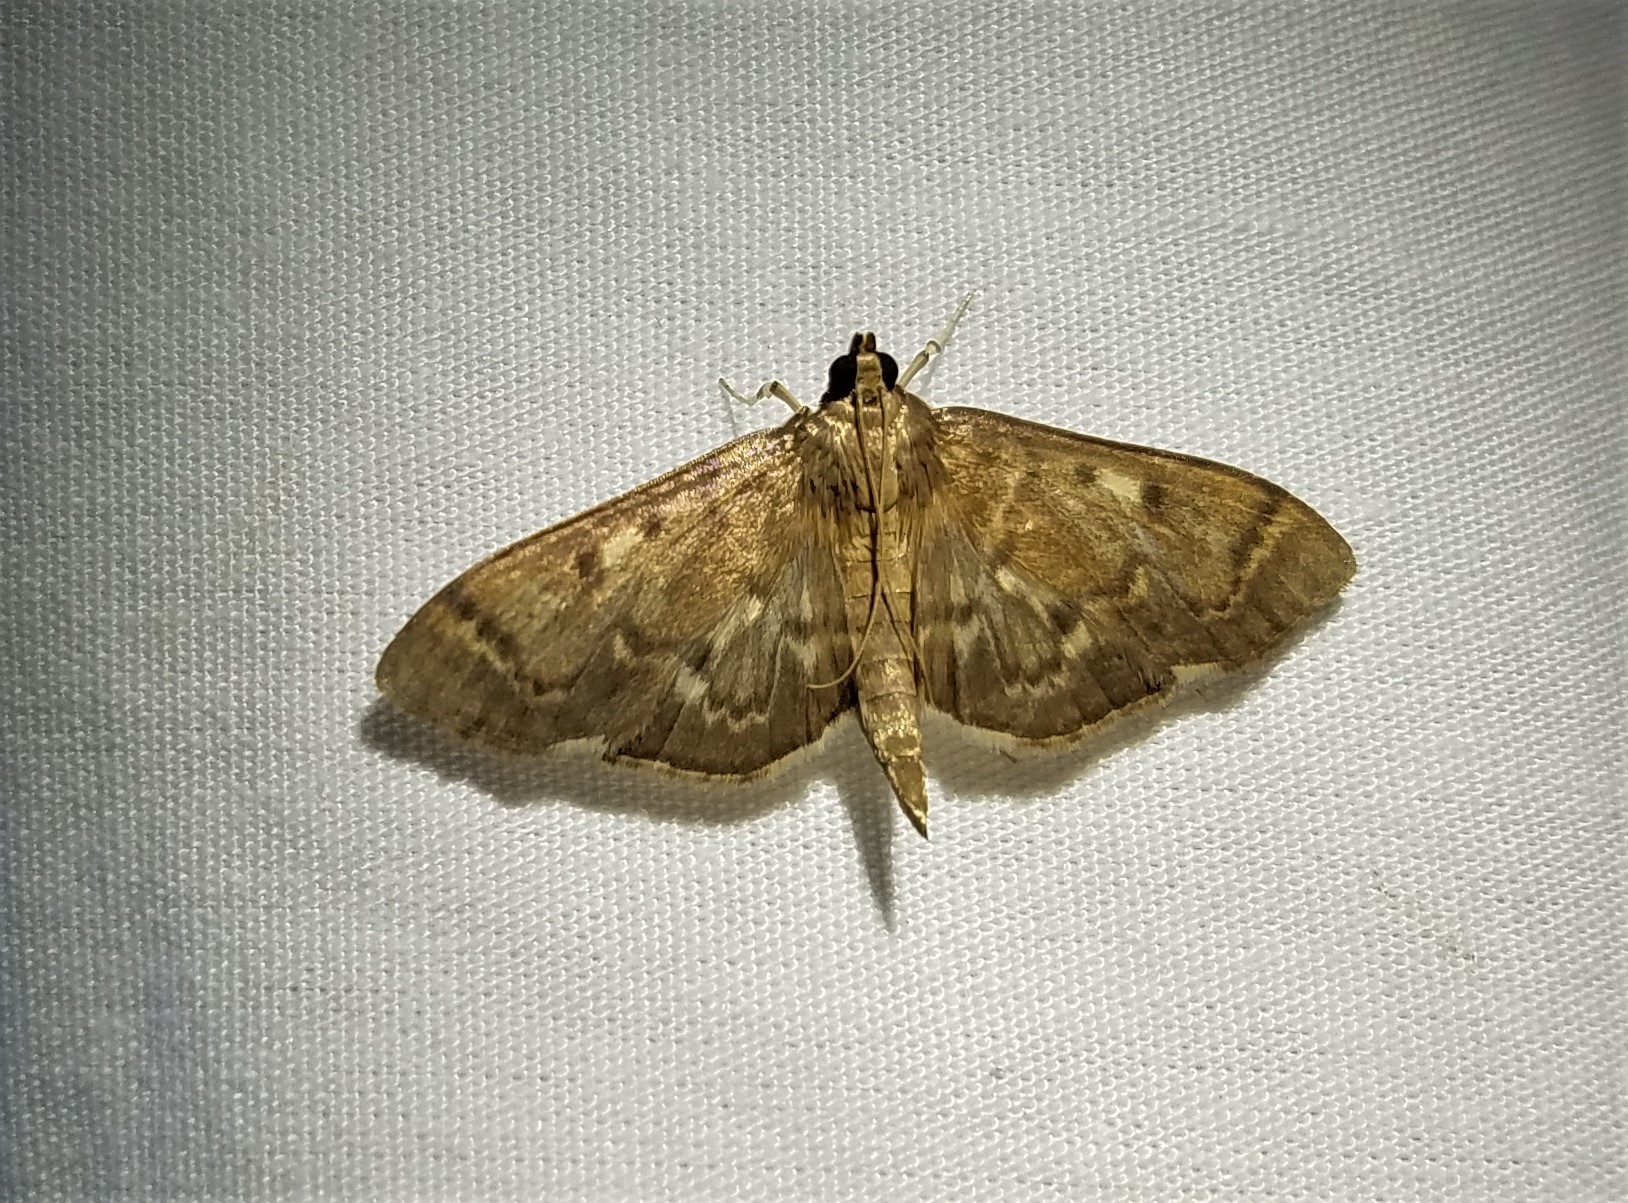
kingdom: Animalia
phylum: Arthropoda
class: Insecta
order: Lepidoptera
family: Crambidae
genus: Herpetogramma
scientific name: Herpetogramma aeglealis
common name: Serpentine webworm moth
